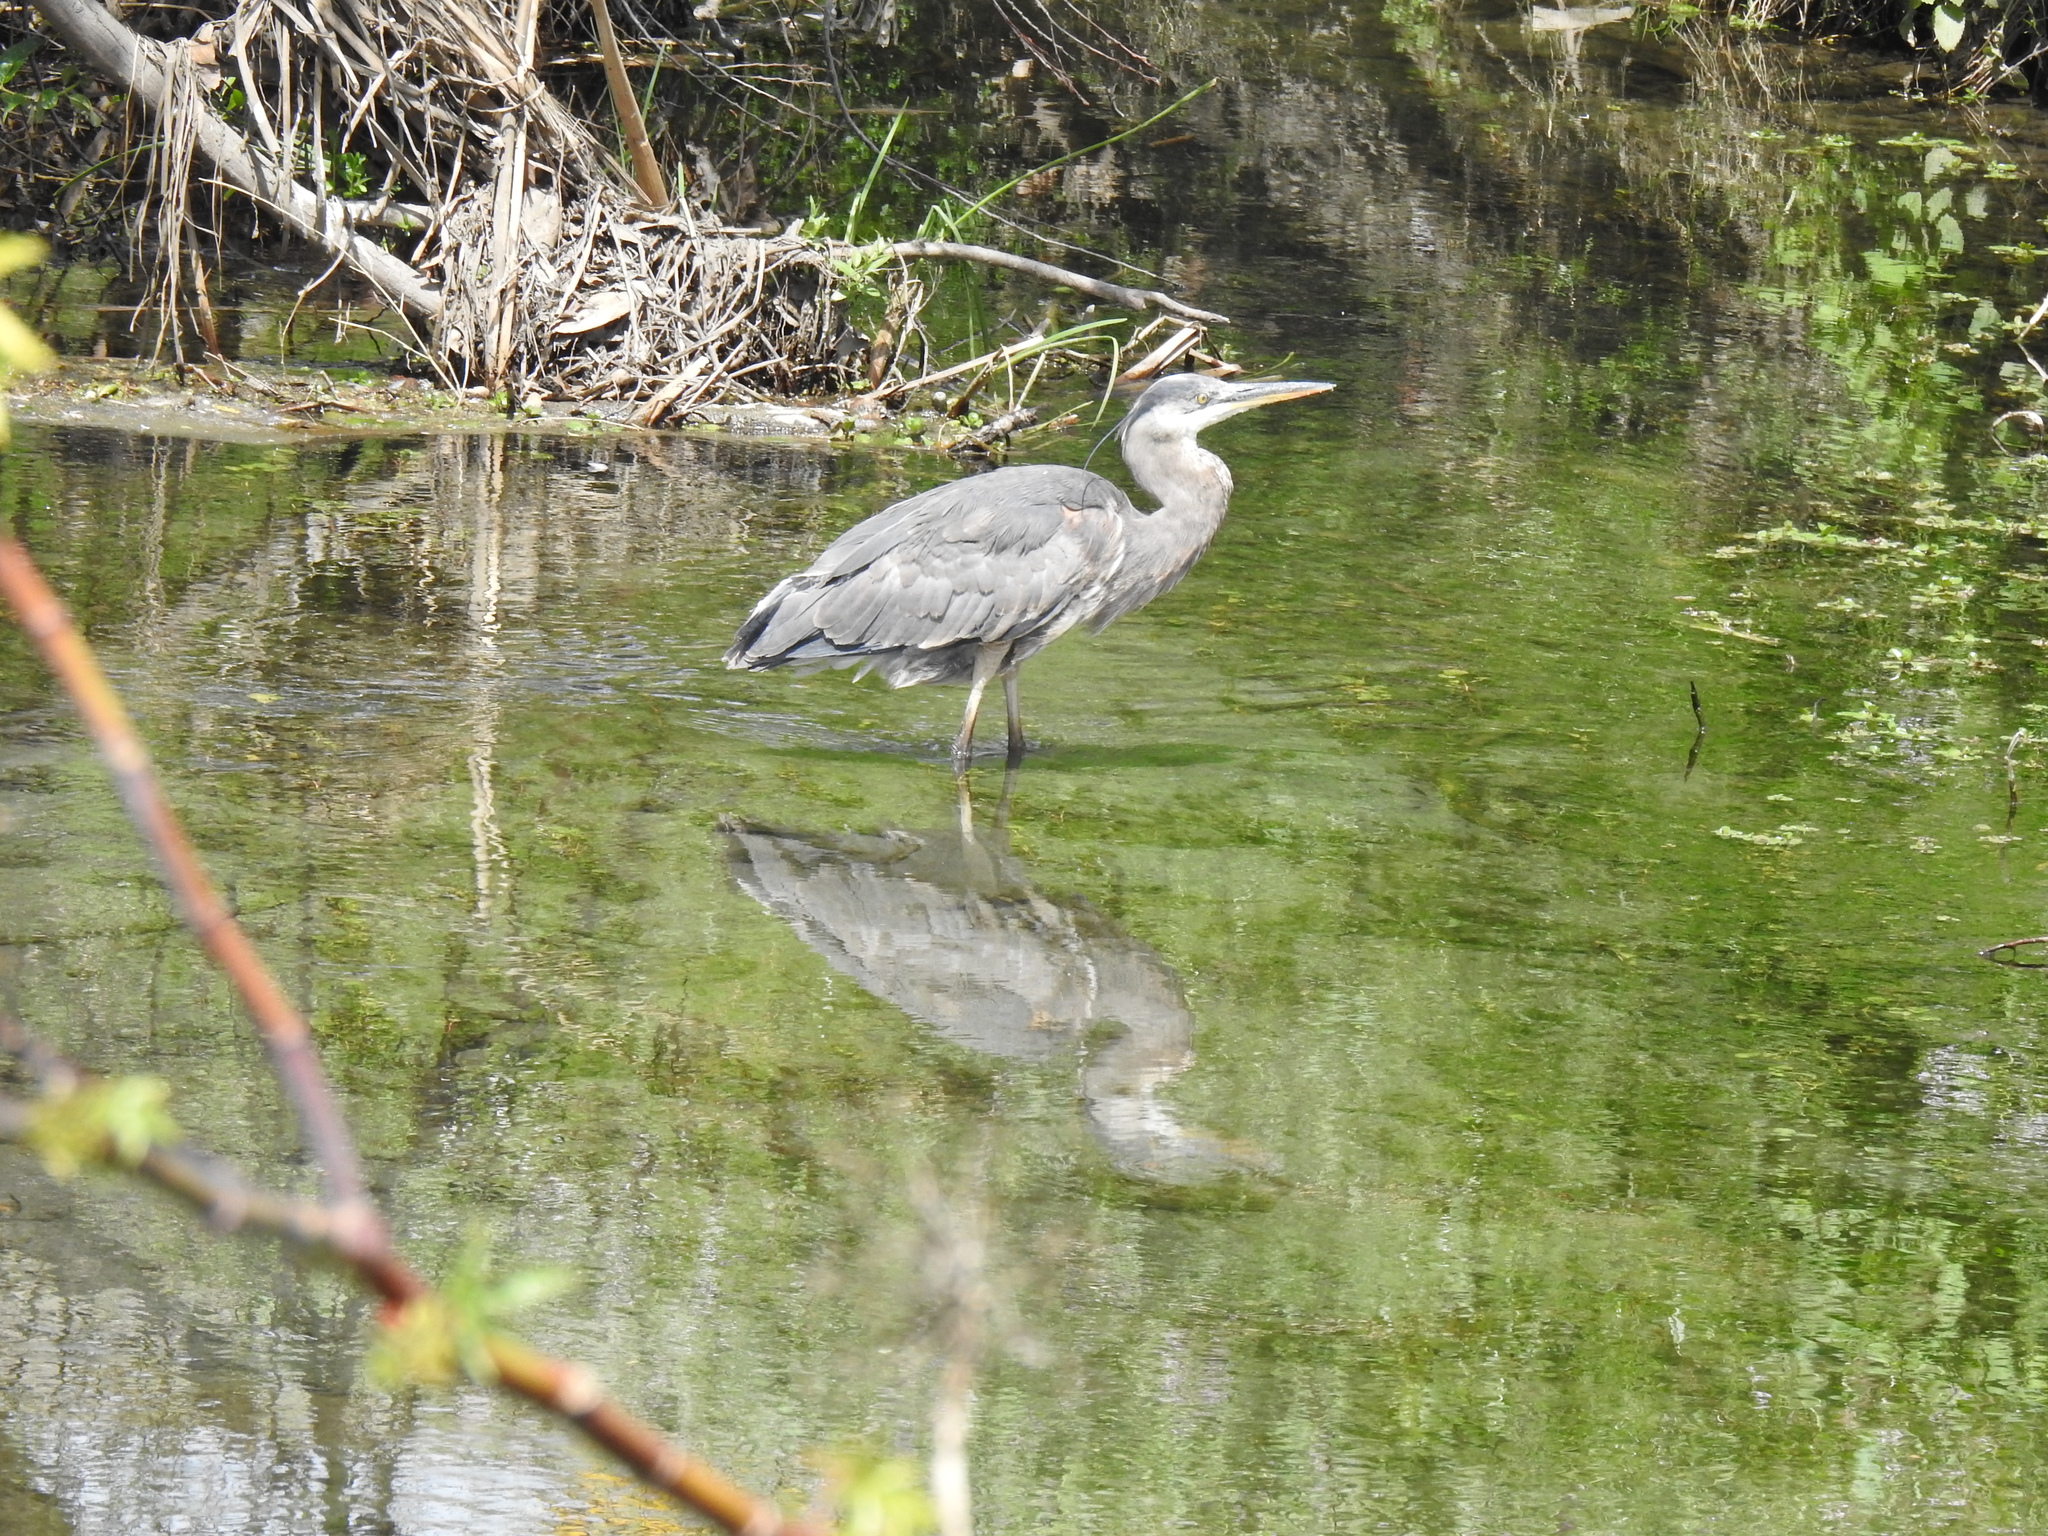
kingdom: Animalia
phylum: Chordata
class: Aves
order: Pelecaniformes
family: Ardeidae
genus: Ardea
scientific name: Ardea herodias
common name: Great blue heron
